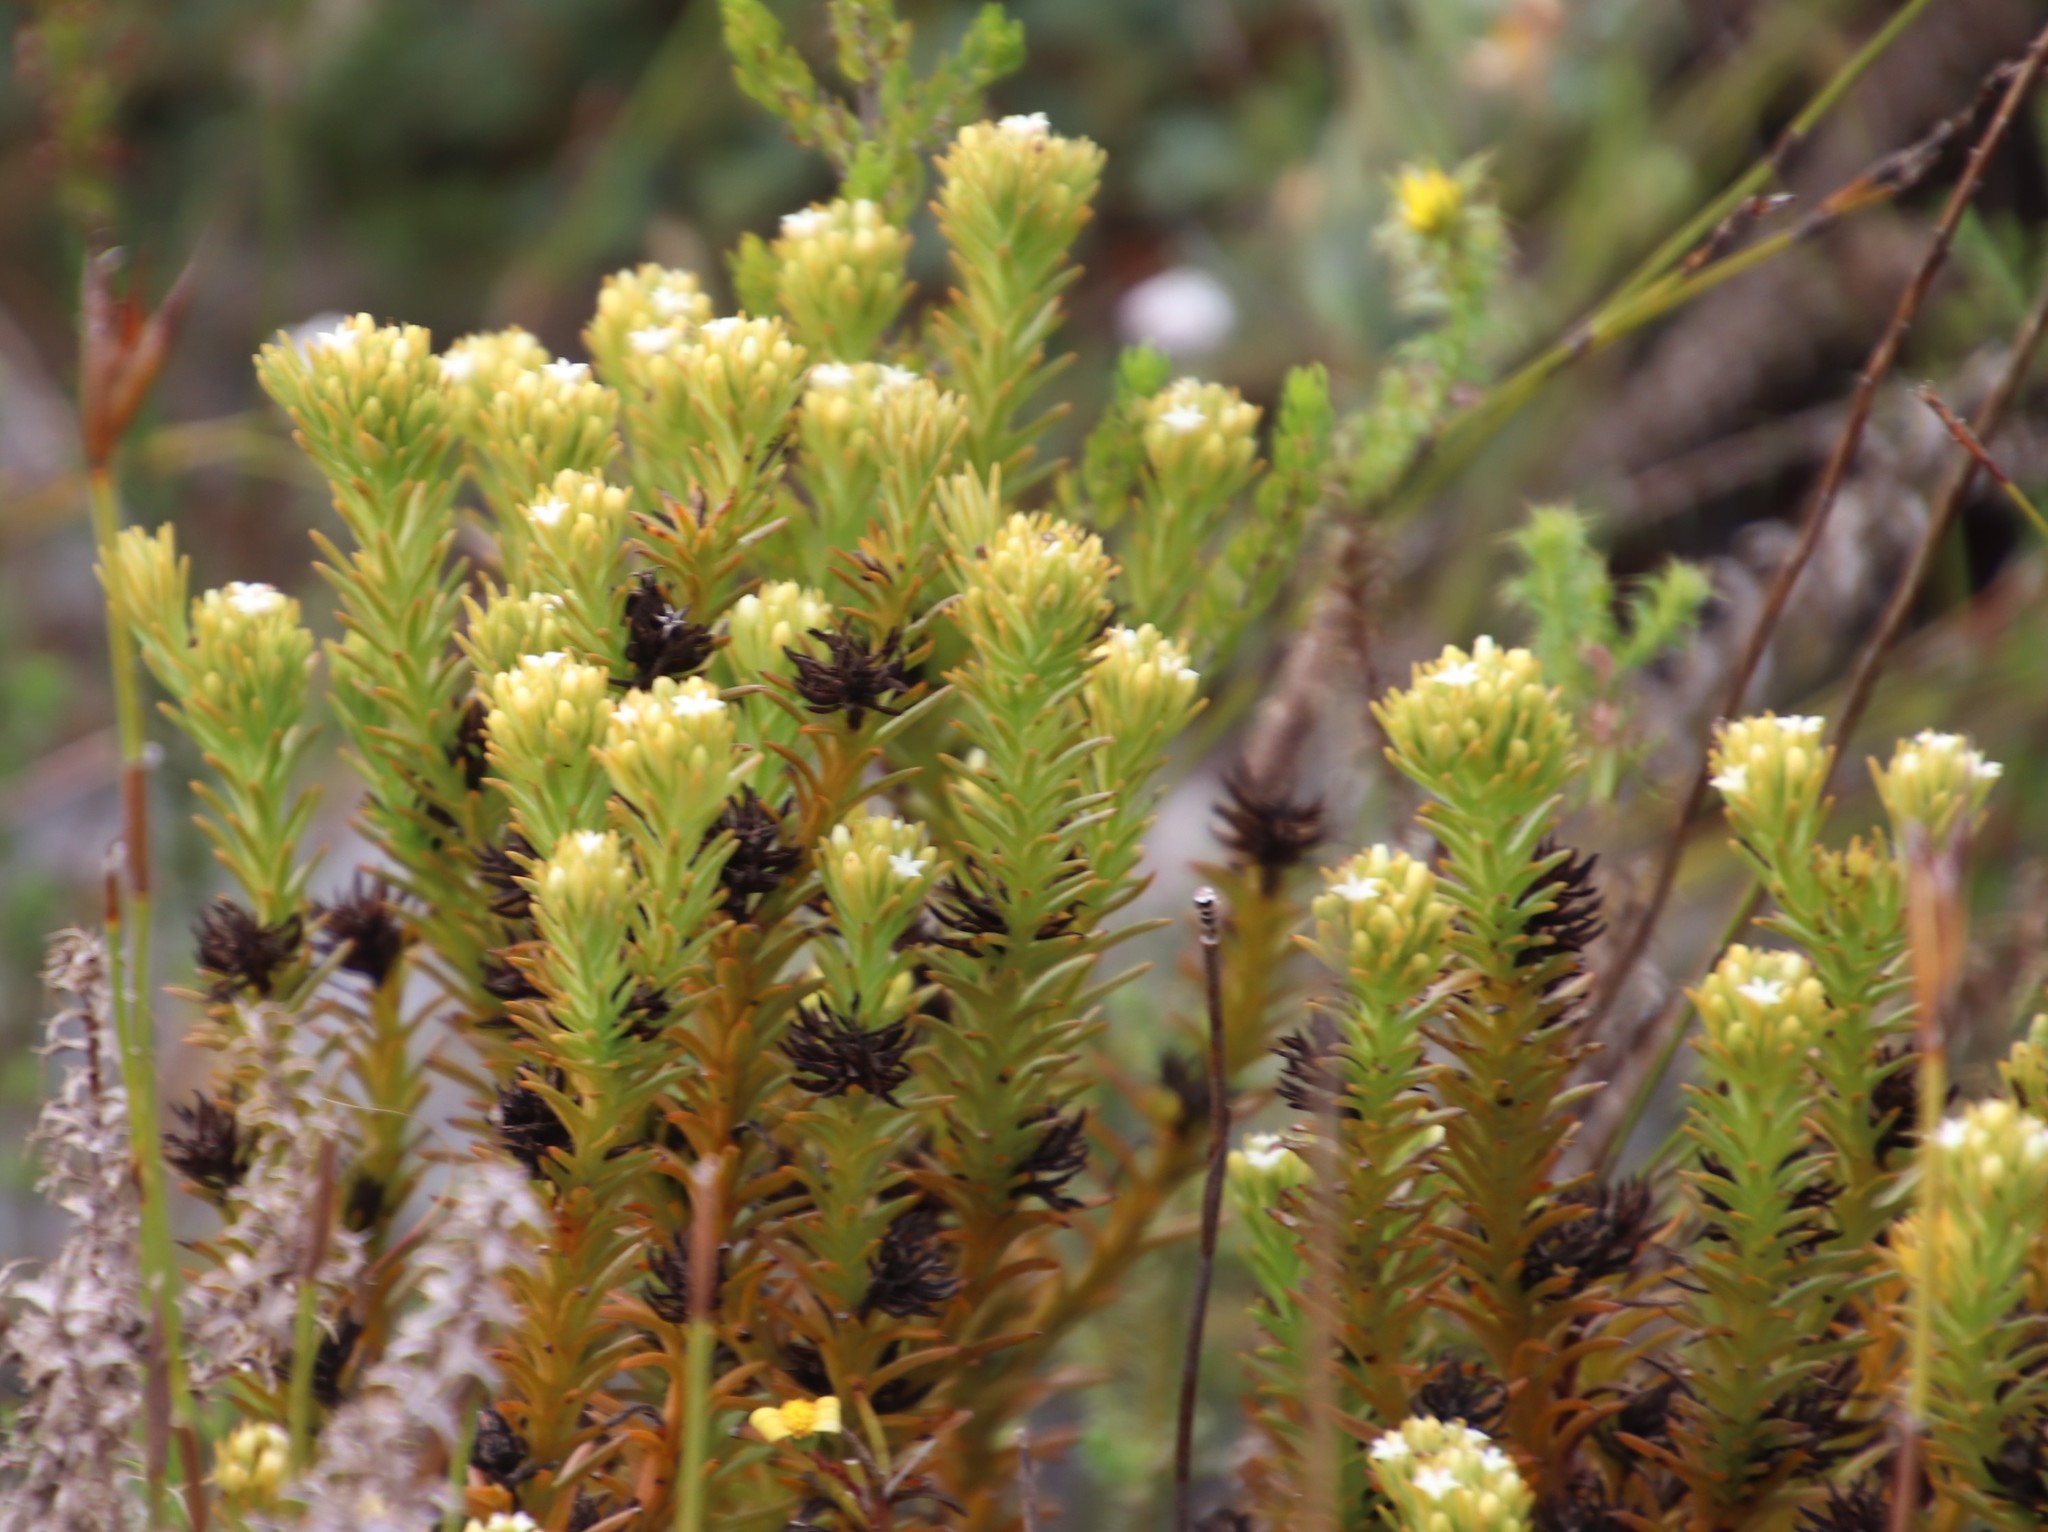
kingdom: Plantae
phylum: Tracheophyta
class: Magnoliopsida
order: Santalales
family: Thesiaceae
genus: Thesium
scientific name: Thesium viridifolium
